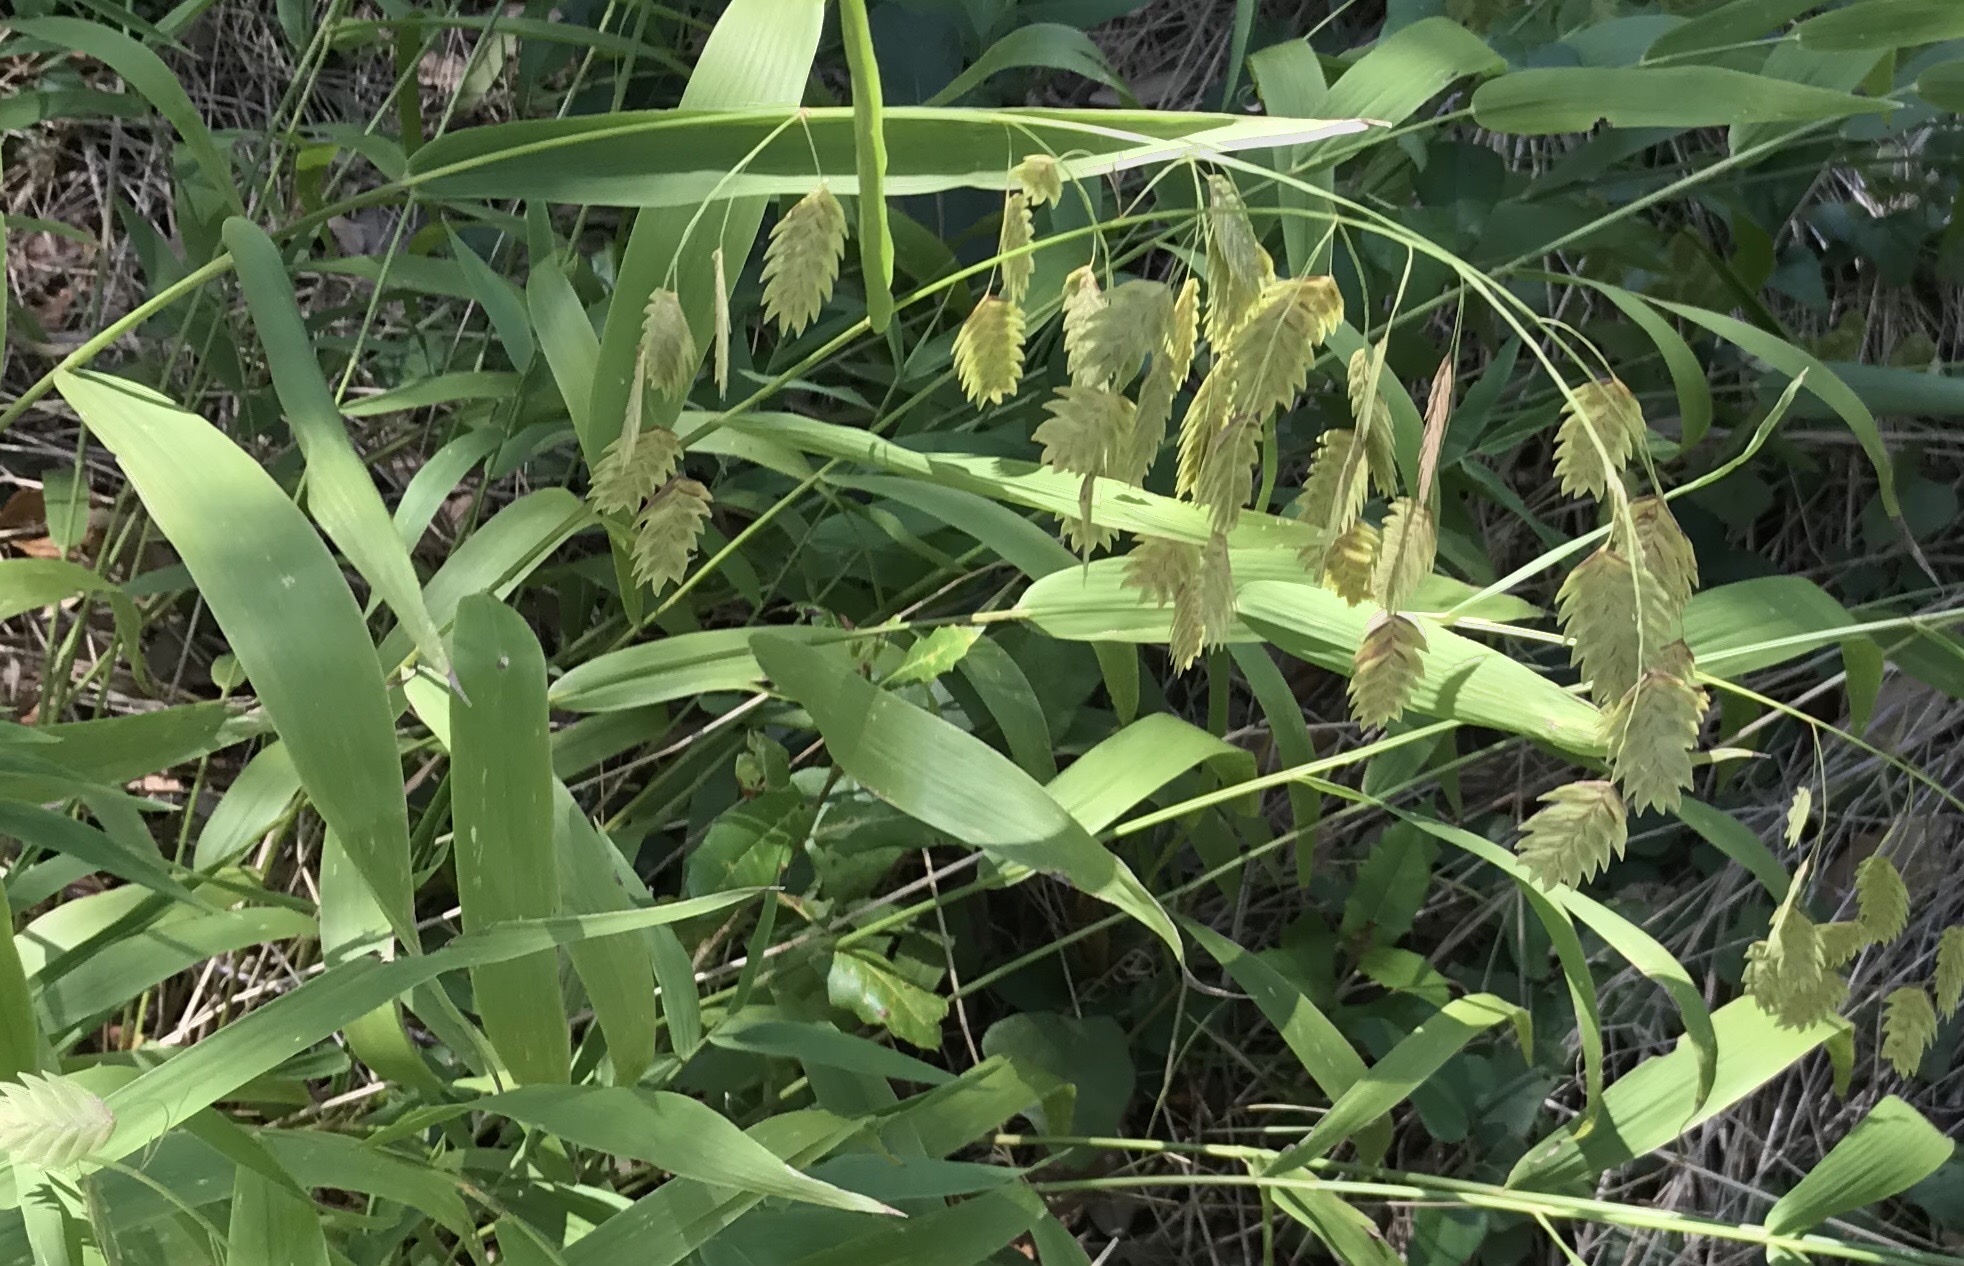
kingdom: Plantae
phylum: Tracheophyta
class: Liliopsida
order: Poales
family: Poaceae
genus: Chasmanthium
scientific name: Chasmanthium latifolium
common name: Broad-leaved chasmanthium
